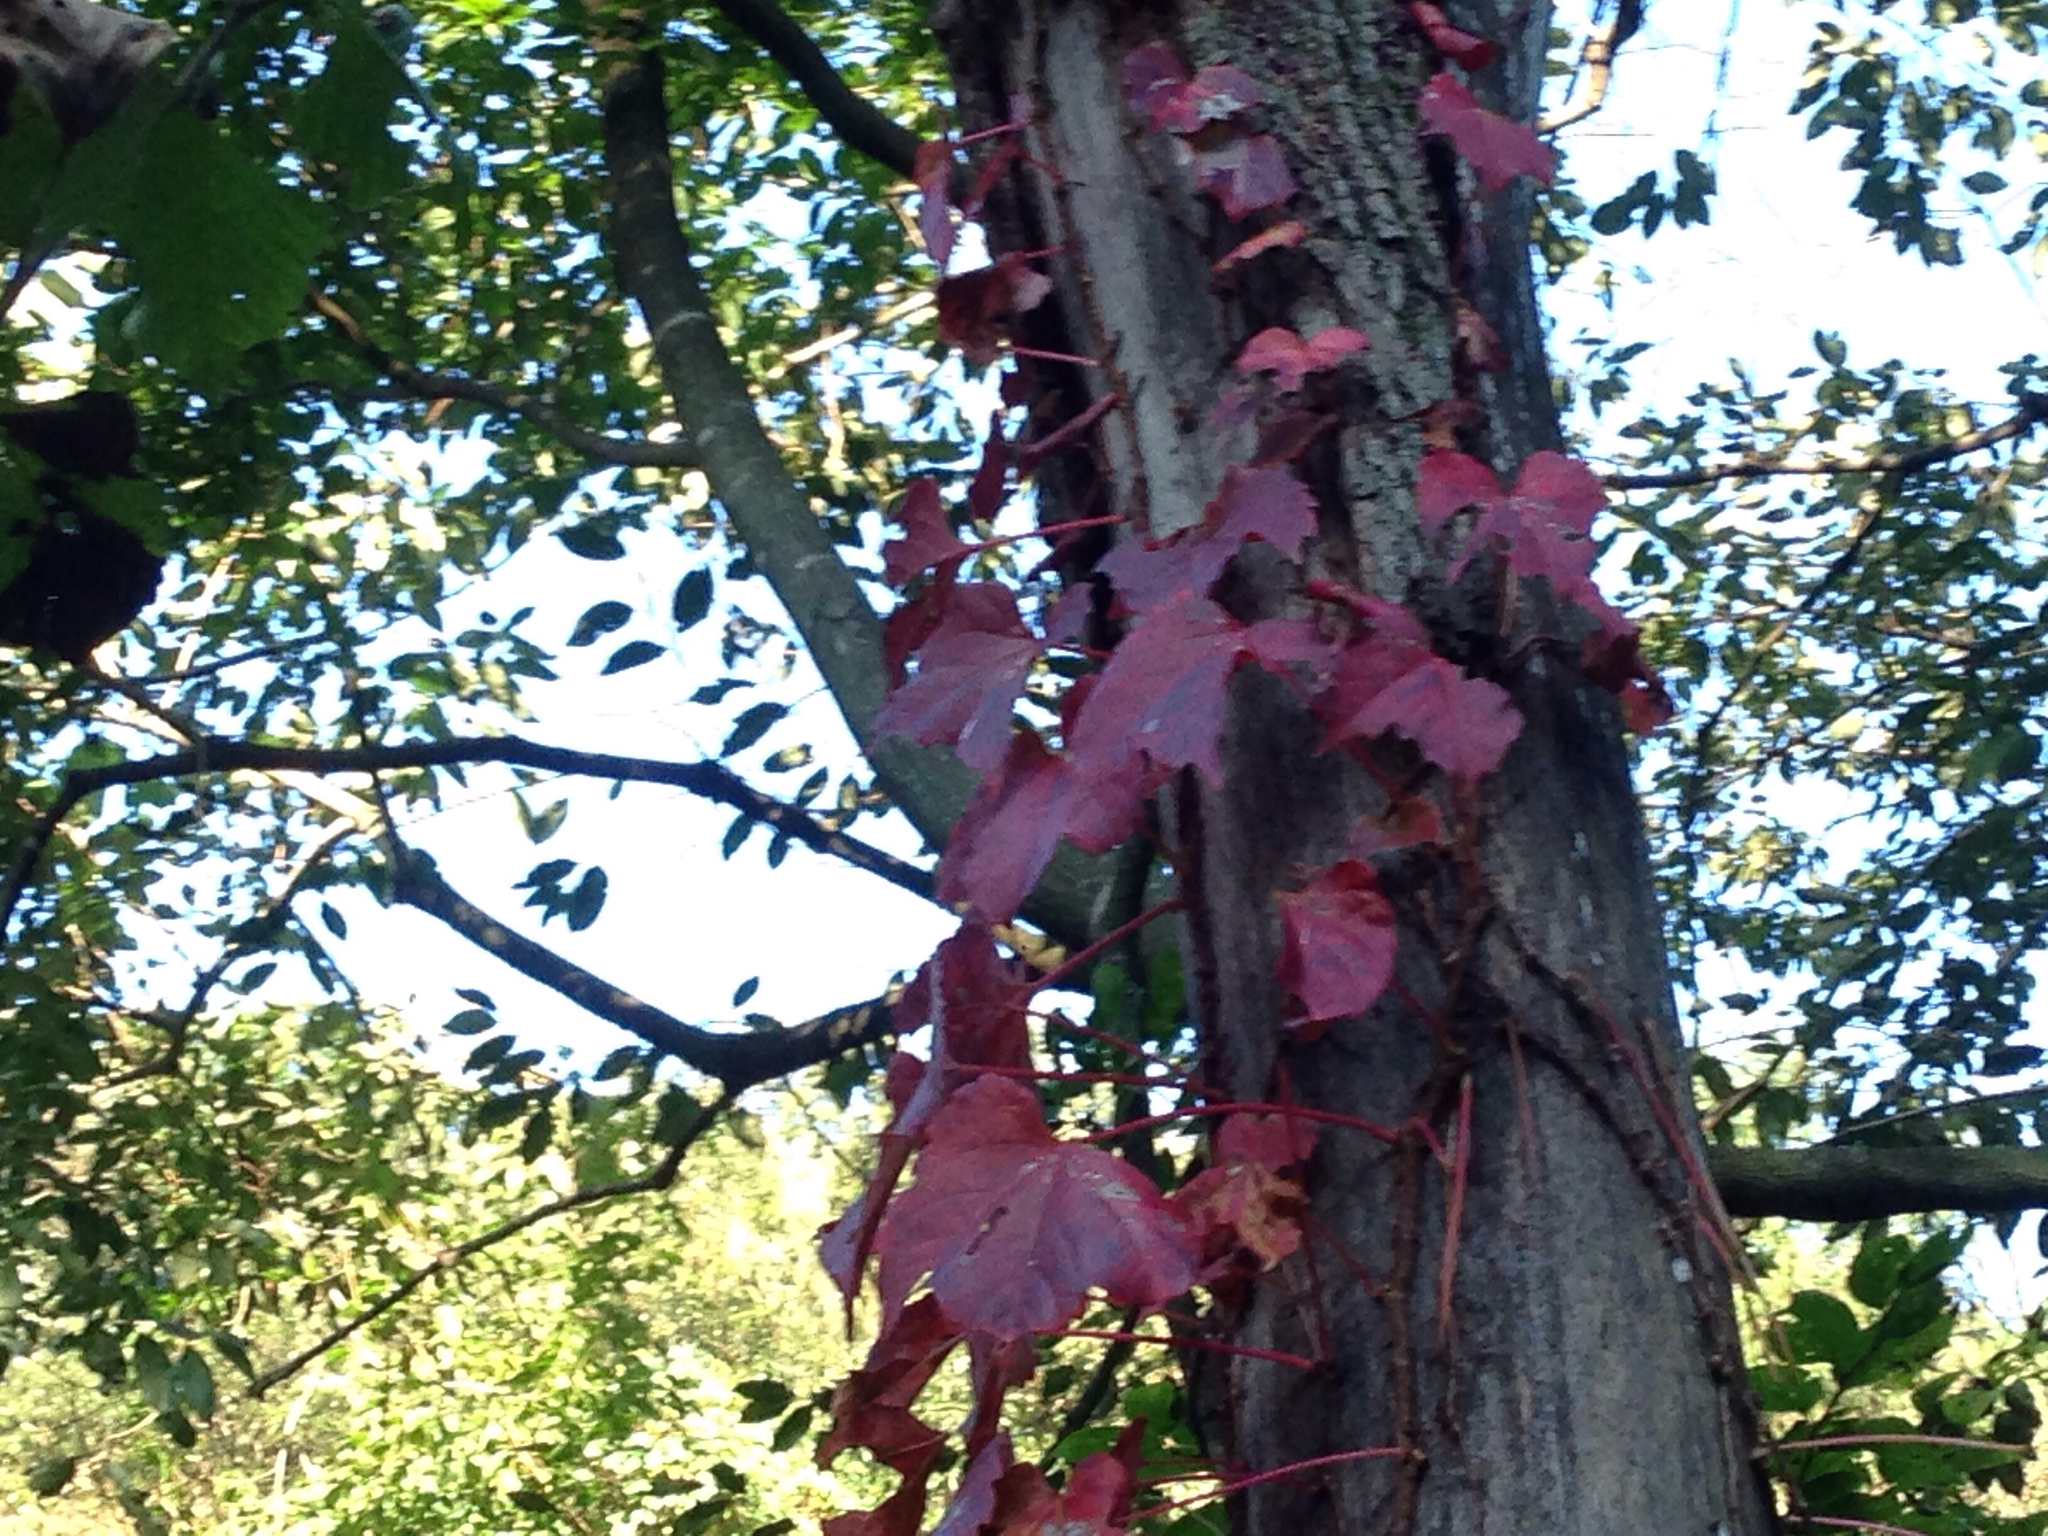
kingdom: Plantae
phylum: Tracheophyta
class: Magnoliopsida
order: Vitales
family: Vitaceae
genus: Parthenocissus
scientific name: Parthenocissus tricuspidata
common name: Boston ivy
